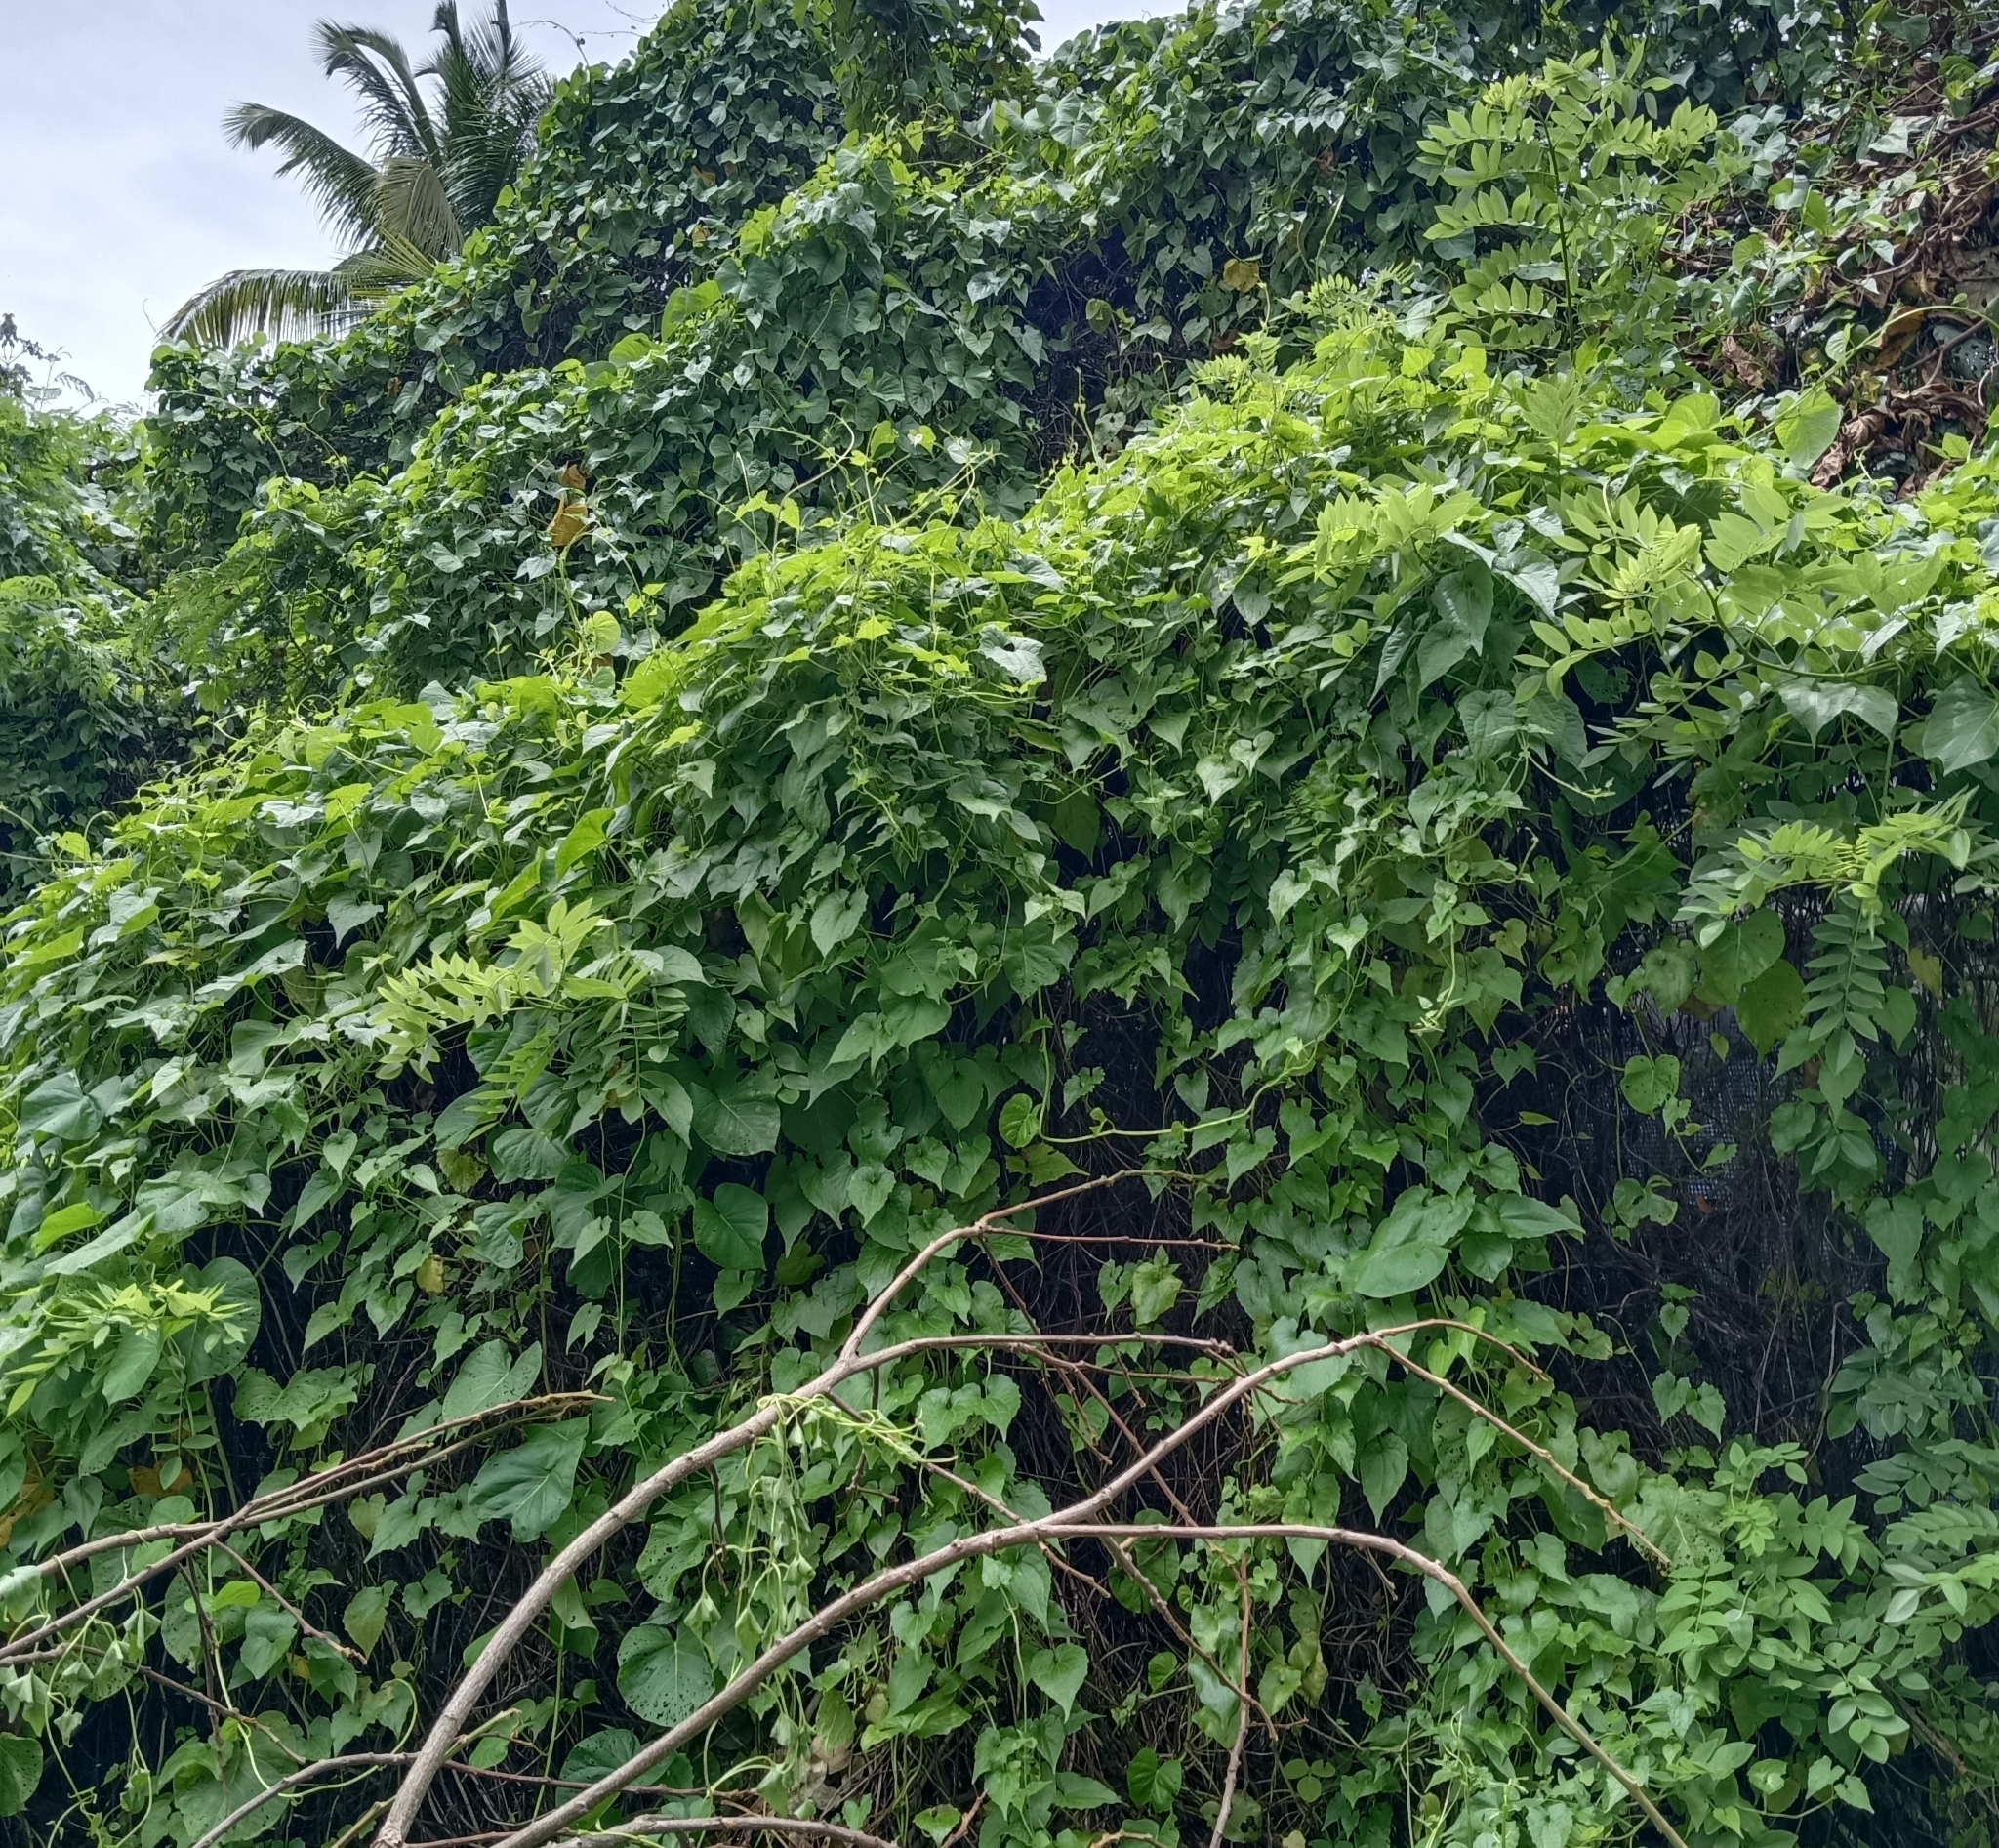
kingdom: Plantae
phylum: Tracheophyta
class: Magnoliopsida
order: Asterales
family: Asteraceae
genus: Mikania
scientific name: Mikania micrantha
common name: Mile-a-minute
